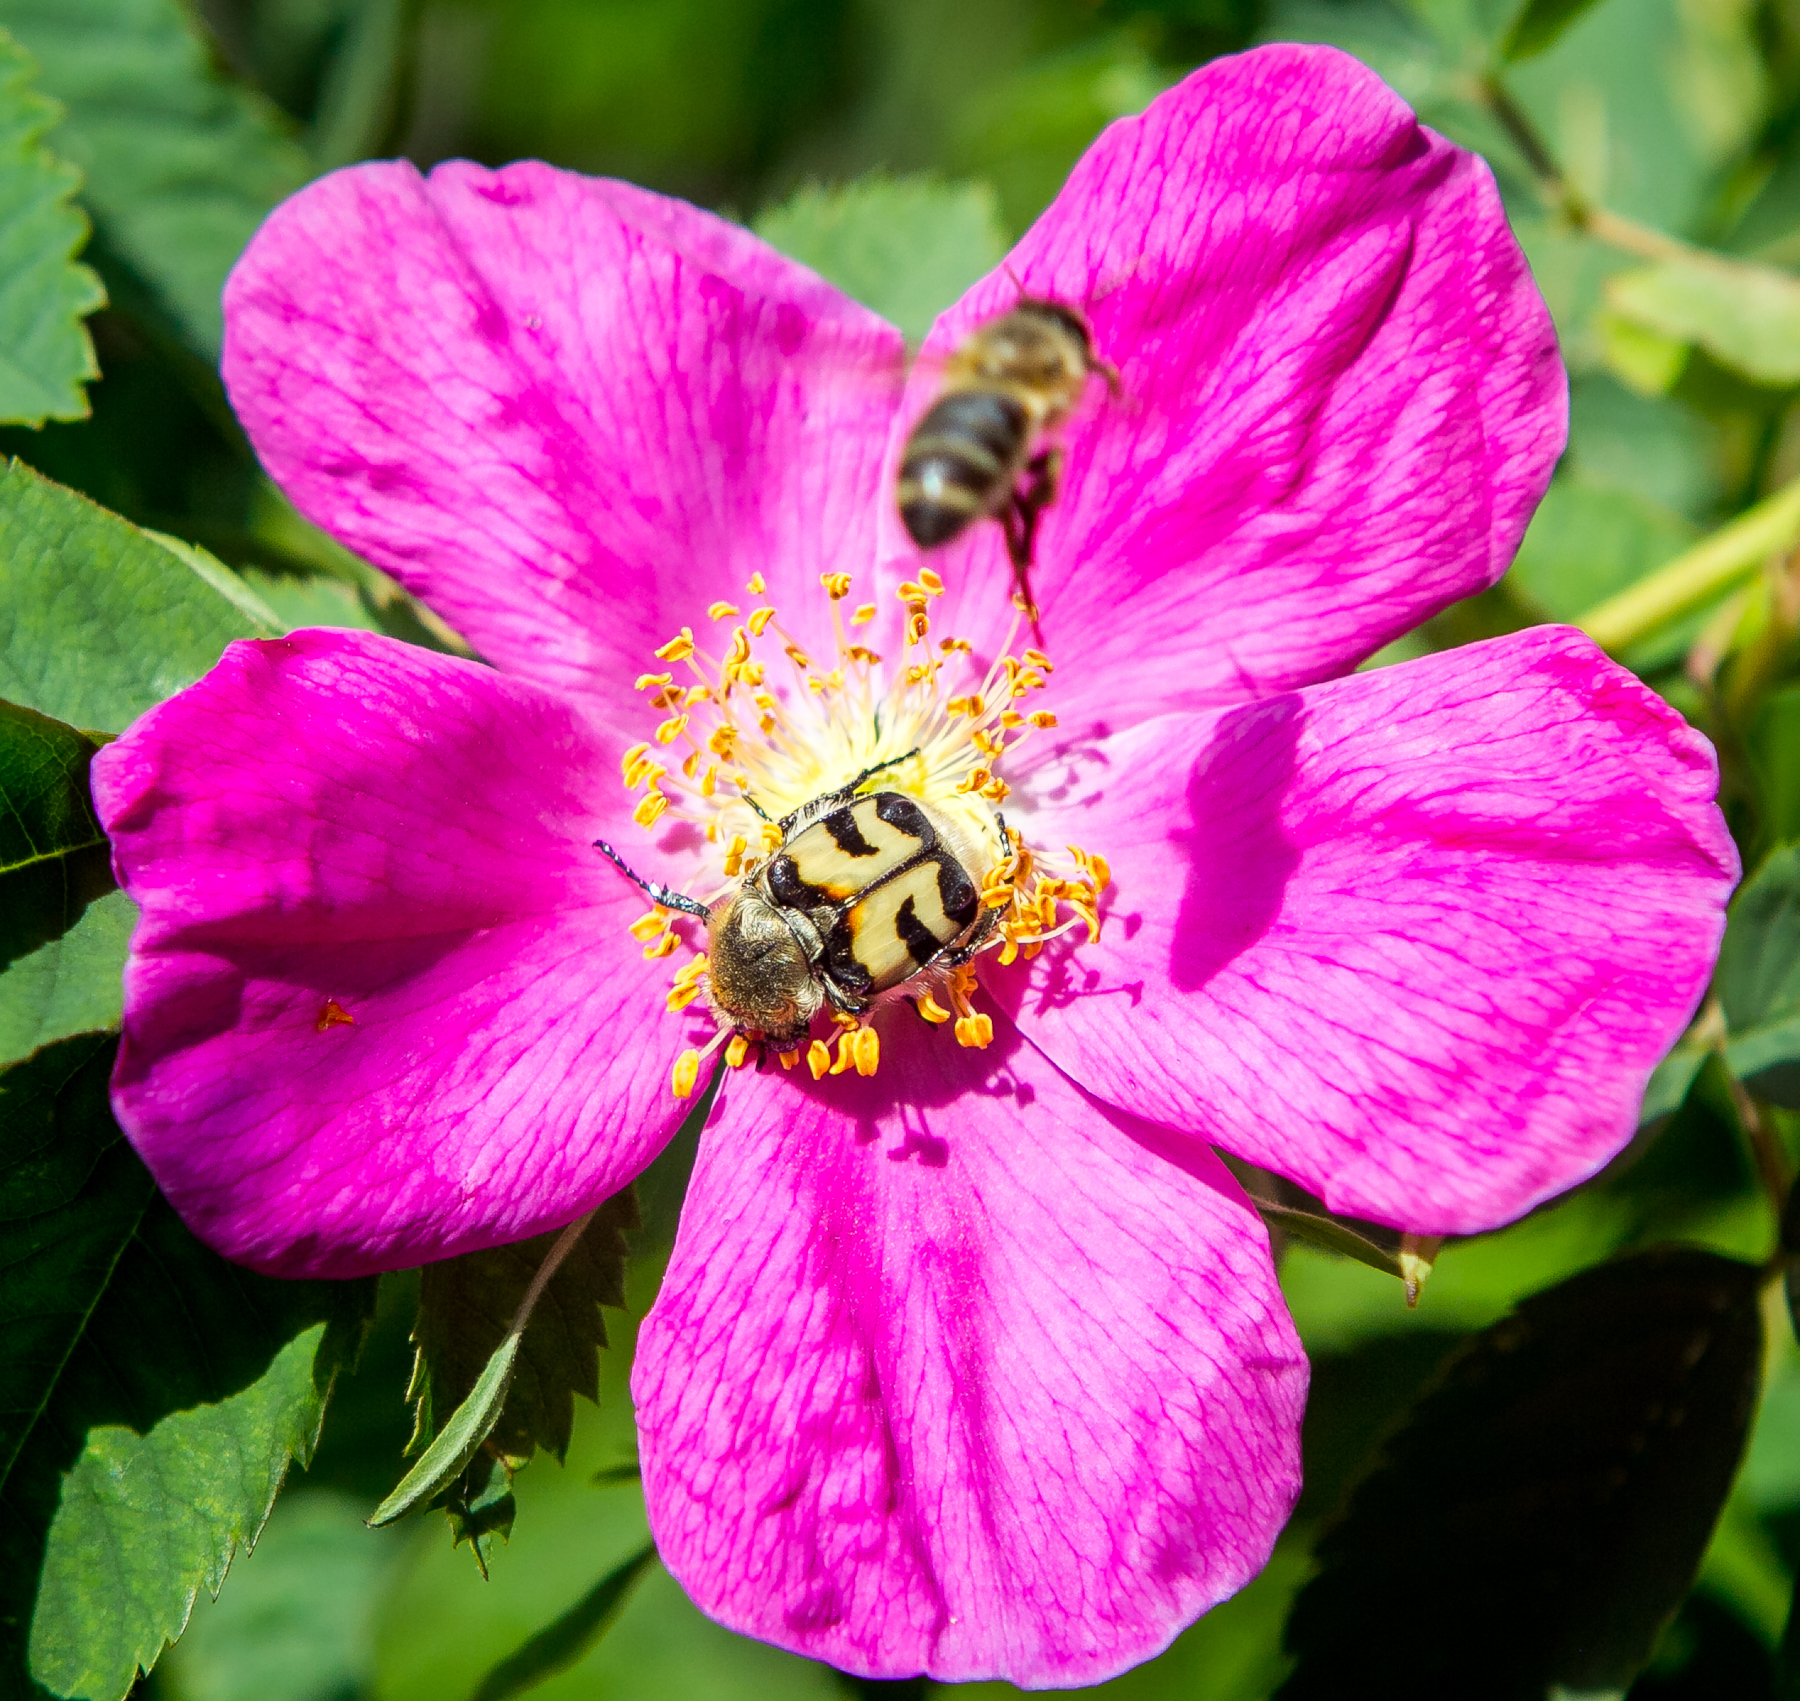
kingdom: Animalia
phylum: Arthropoda
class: Insecta
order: Coleoptera
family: Scarabaeidae
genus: Trichius
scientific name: Trichius fasciatus
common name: Bee beetle
